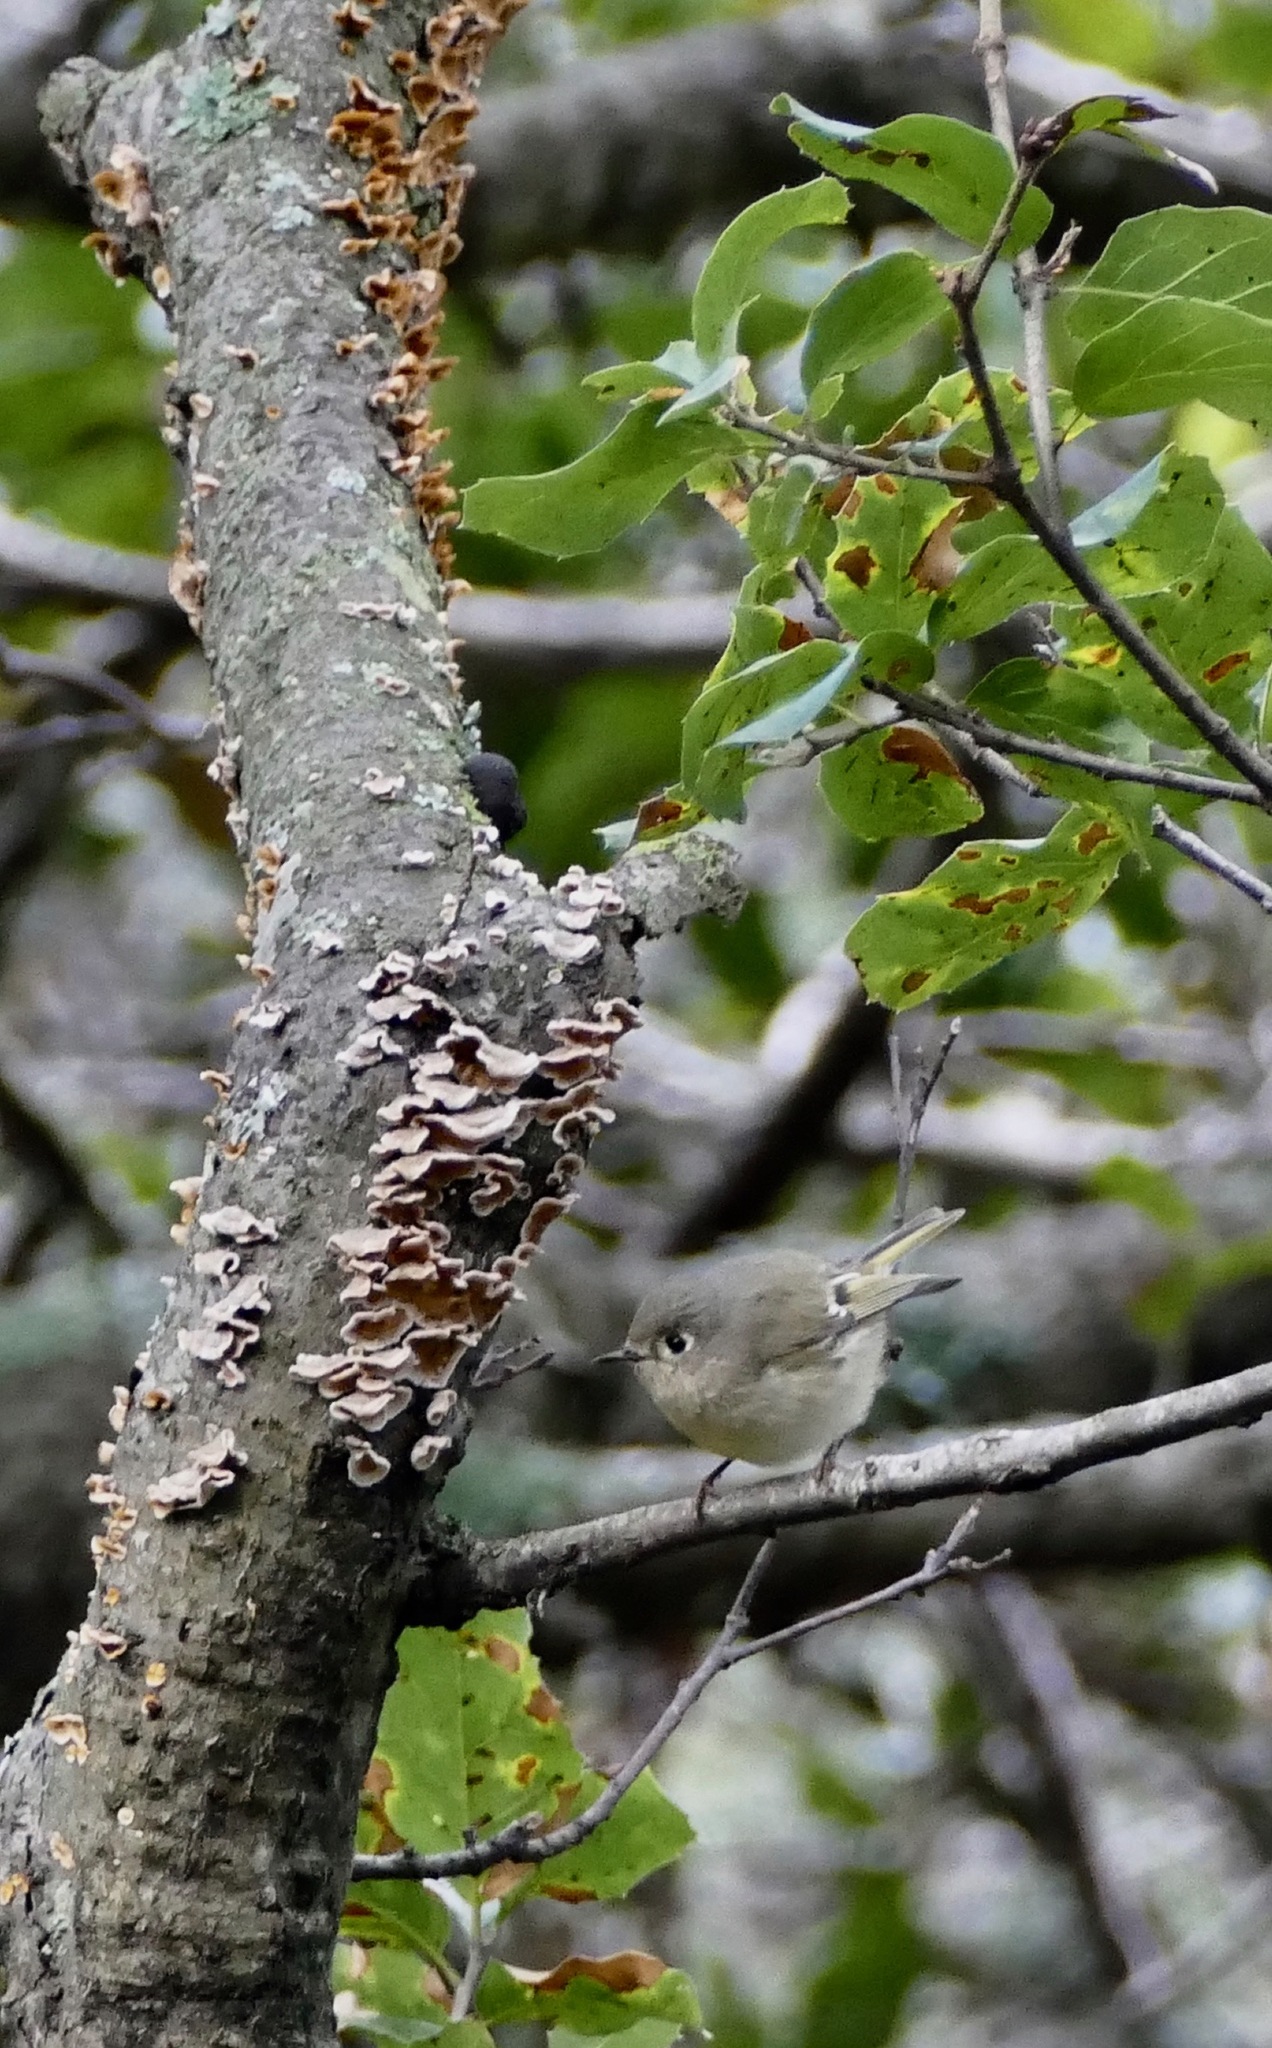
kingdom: Animalia
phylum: Chordata
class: Aves
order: Passeriformes
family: Regulidae
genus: Regulus
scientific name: Regulus calendula
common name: Ruby-crowned kinglet
